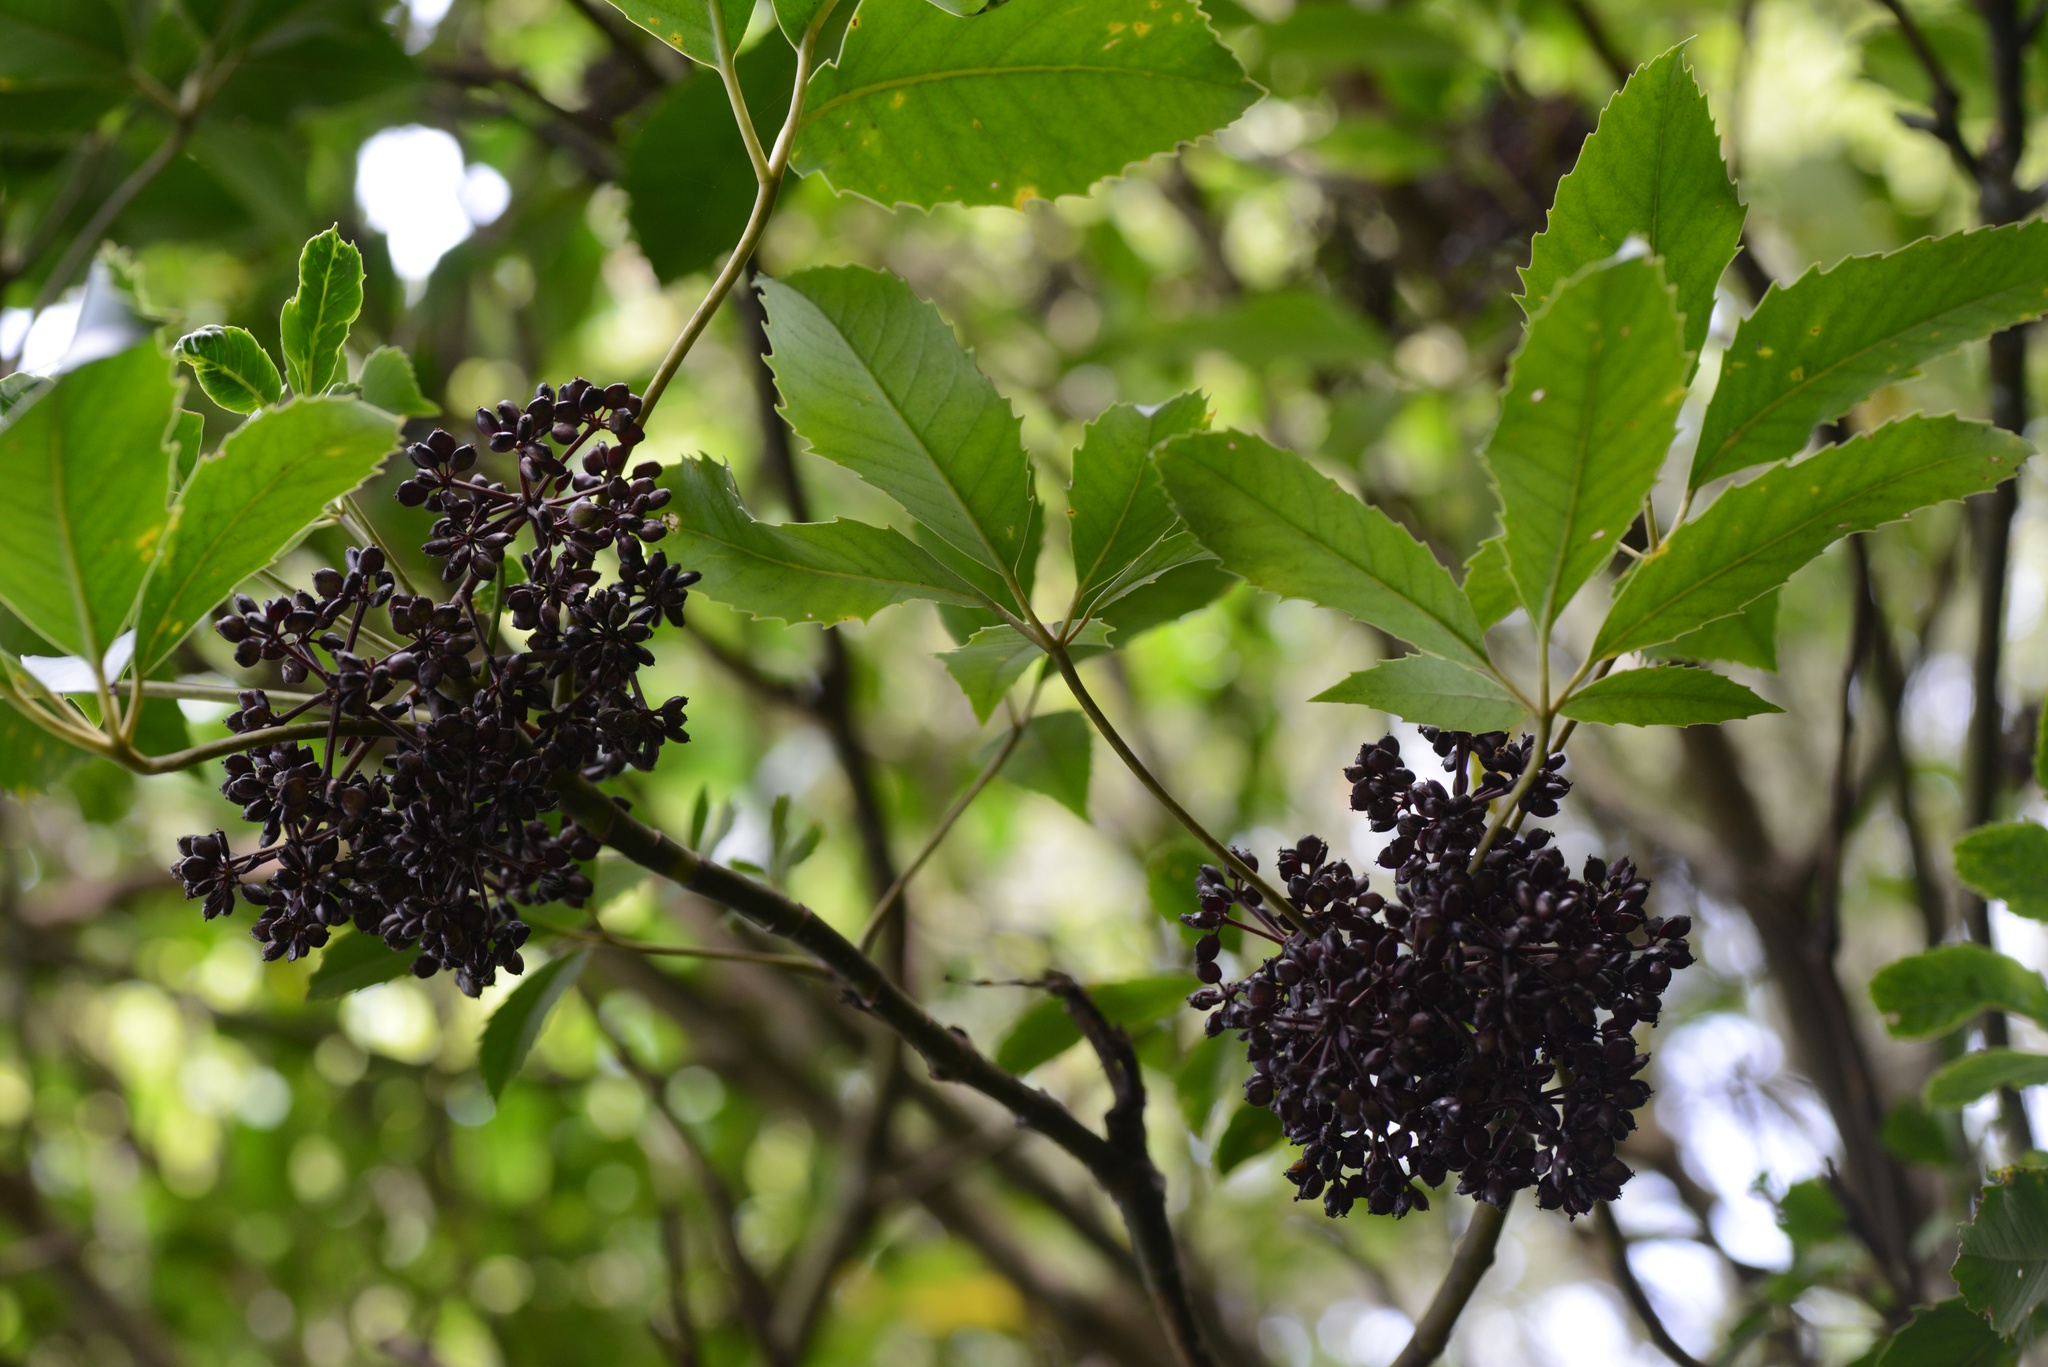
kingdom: Plantae
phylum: Tracheophyta
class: Magnoliopsida
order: Apiales
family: Araliaceae
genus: Neopanax
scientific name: Neopanax arboreus
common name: Five-fingers
